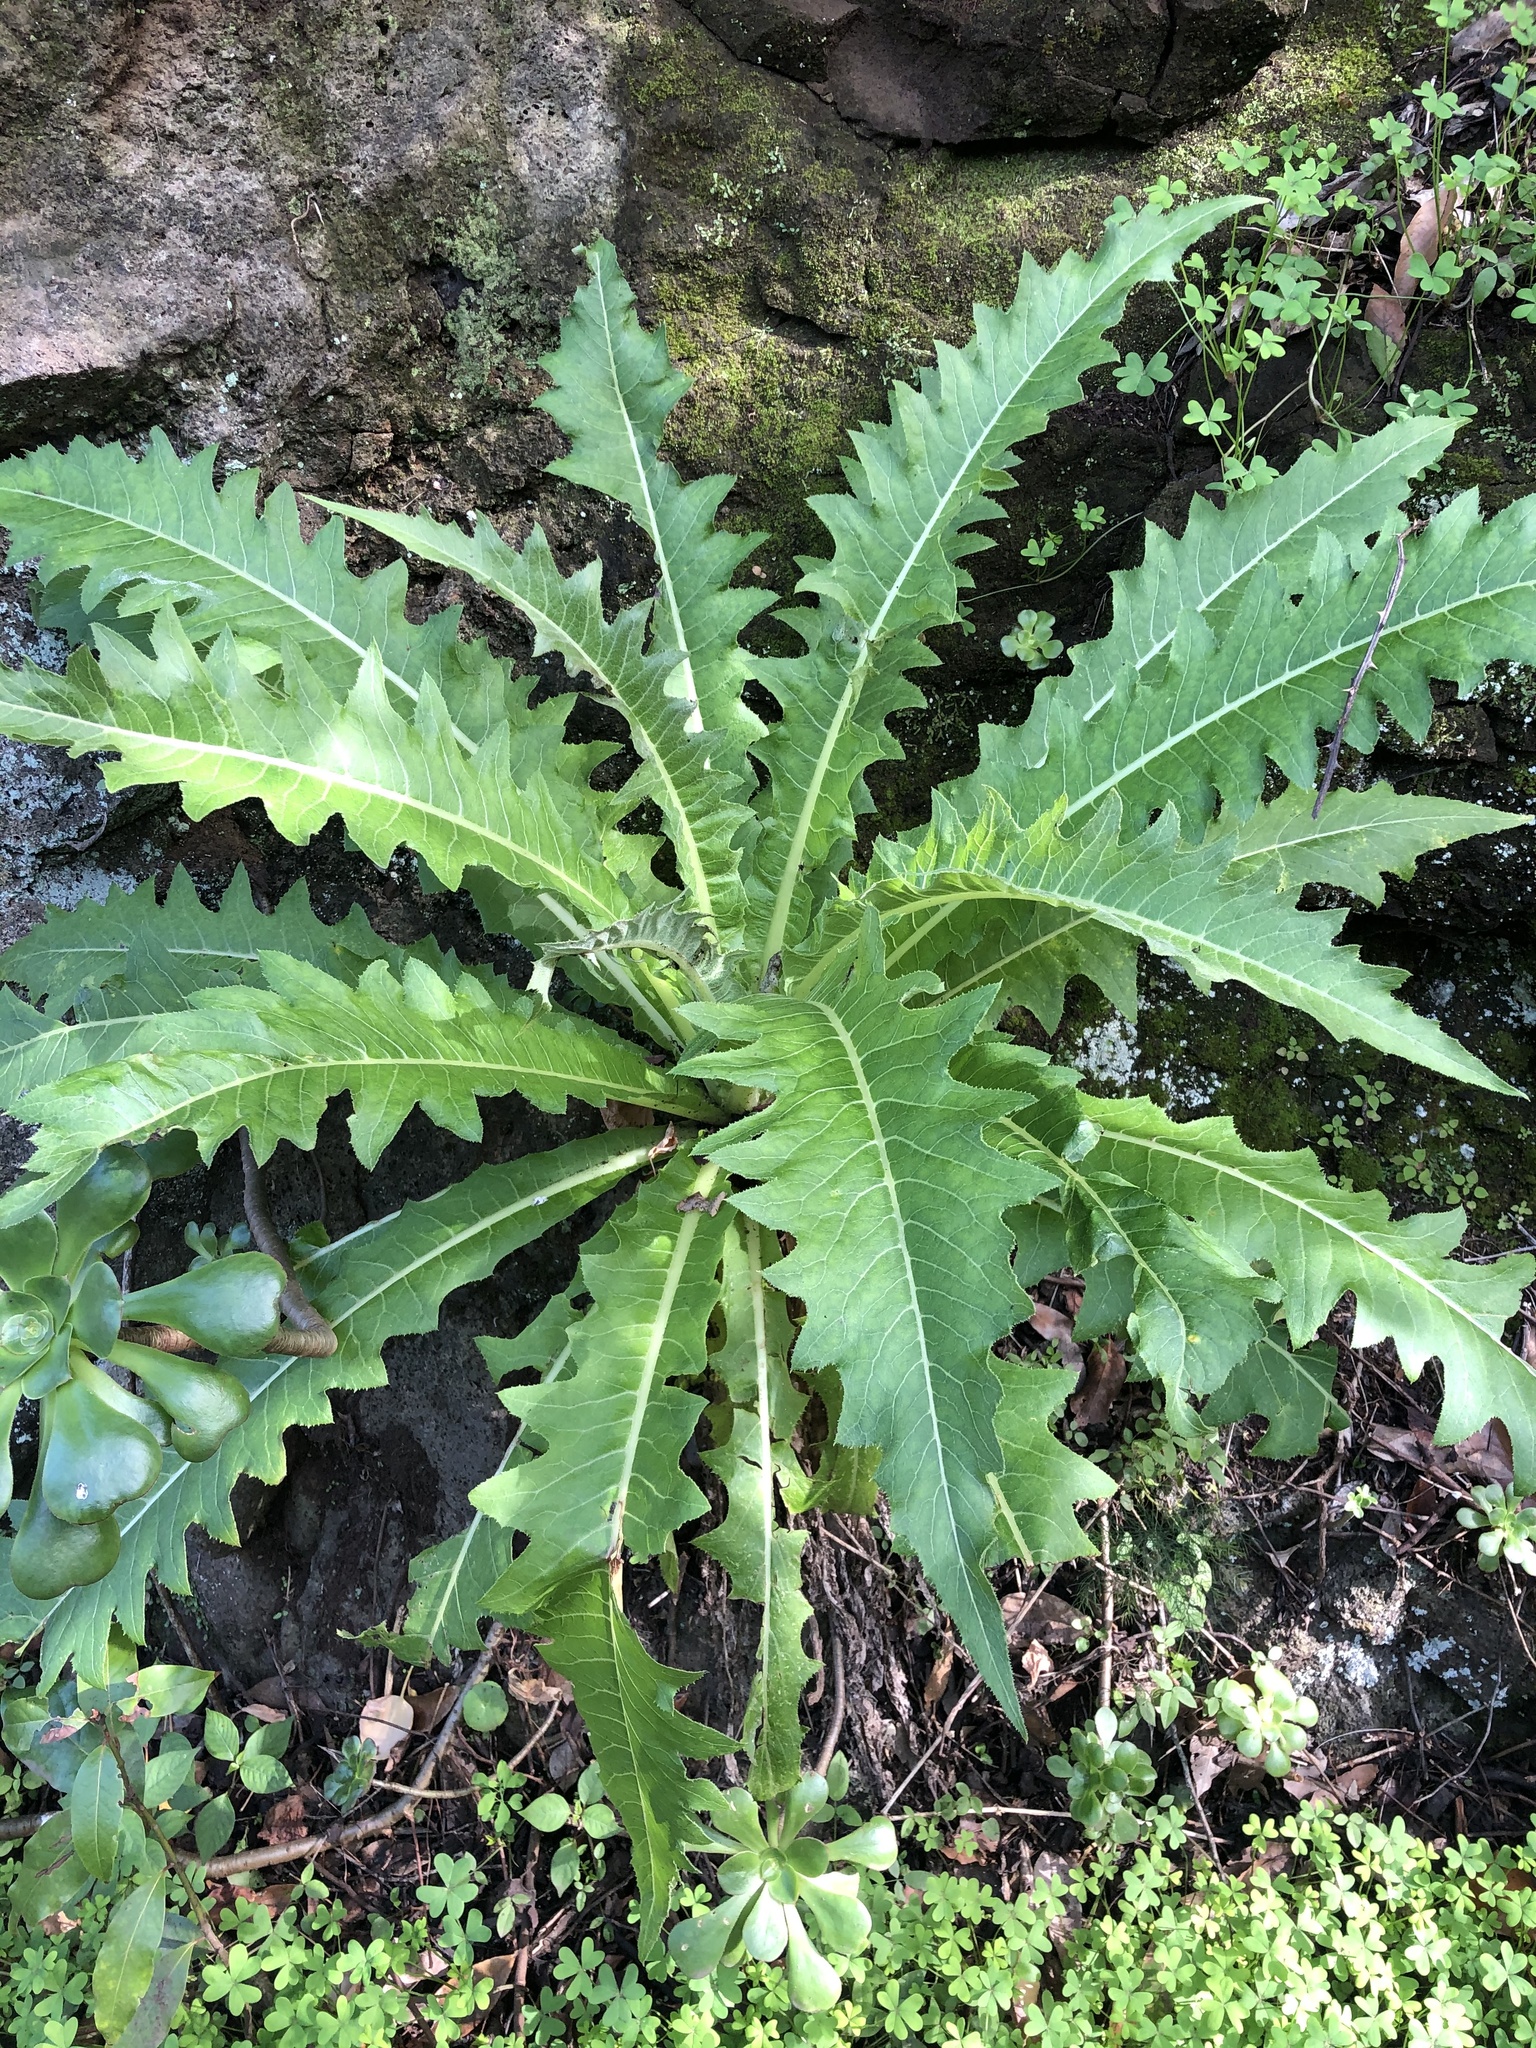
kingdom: Plantae
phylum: Tracheophyta
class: Magnoliopsida
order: Asterales
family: Asteraceae
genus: Sonchus
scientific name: Sonchus acaulis
